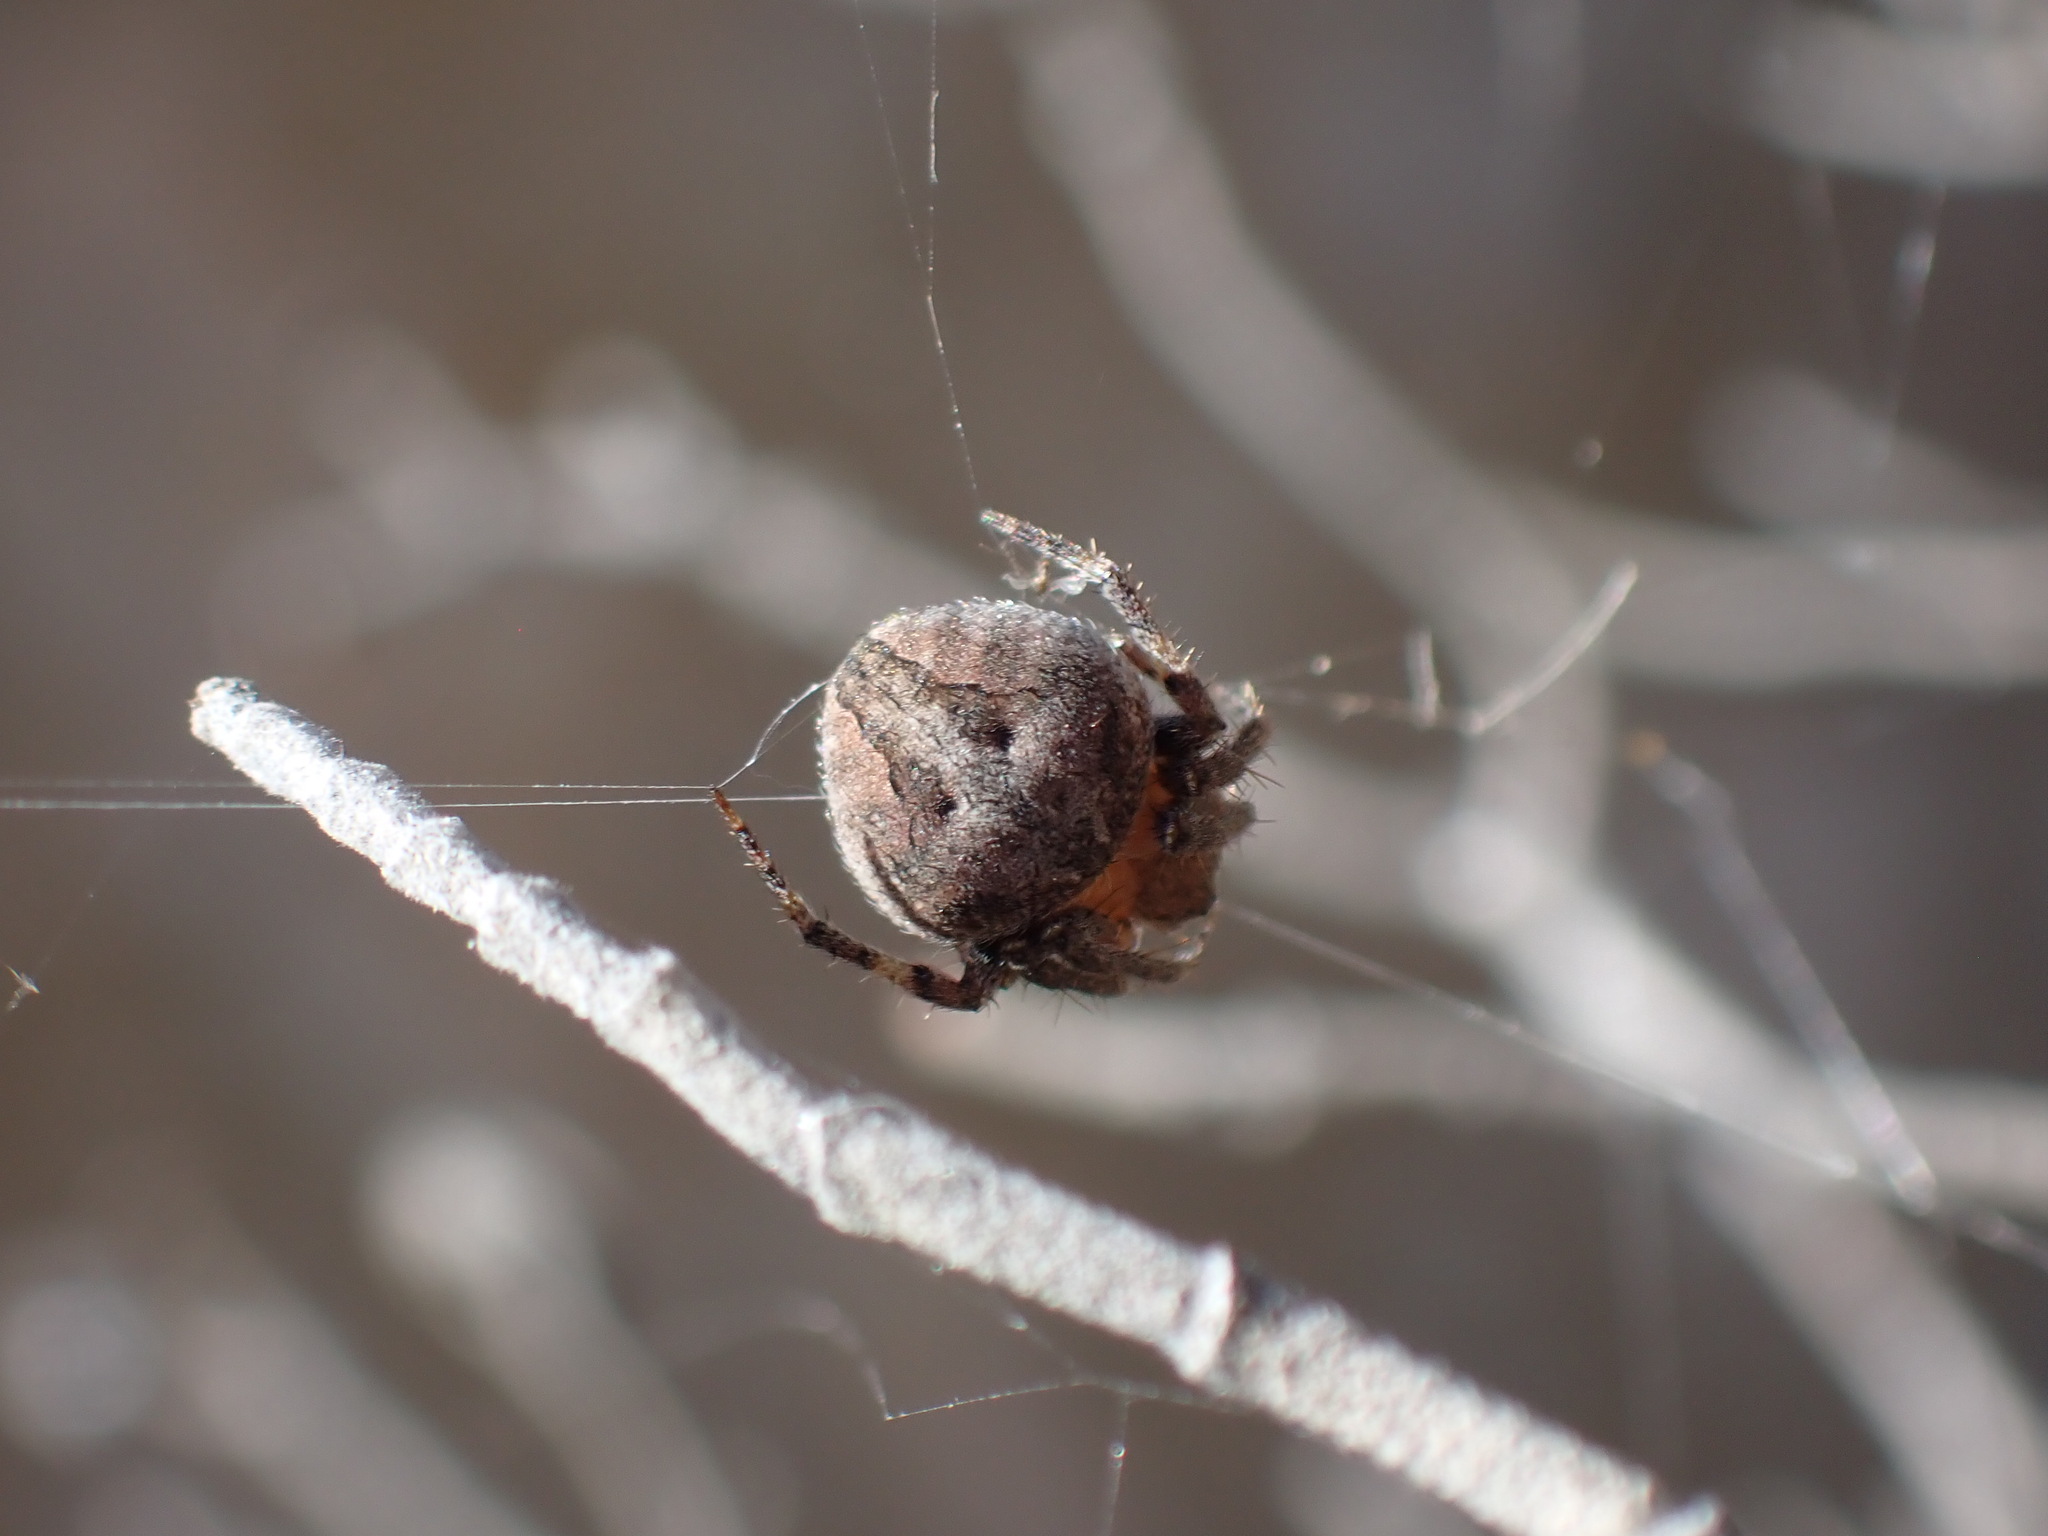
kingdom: Animalia
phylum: Arthropoda
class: Arachnida
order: Araneae
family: Araneidae
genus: Neoscona
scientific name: Neoscona subfusca
